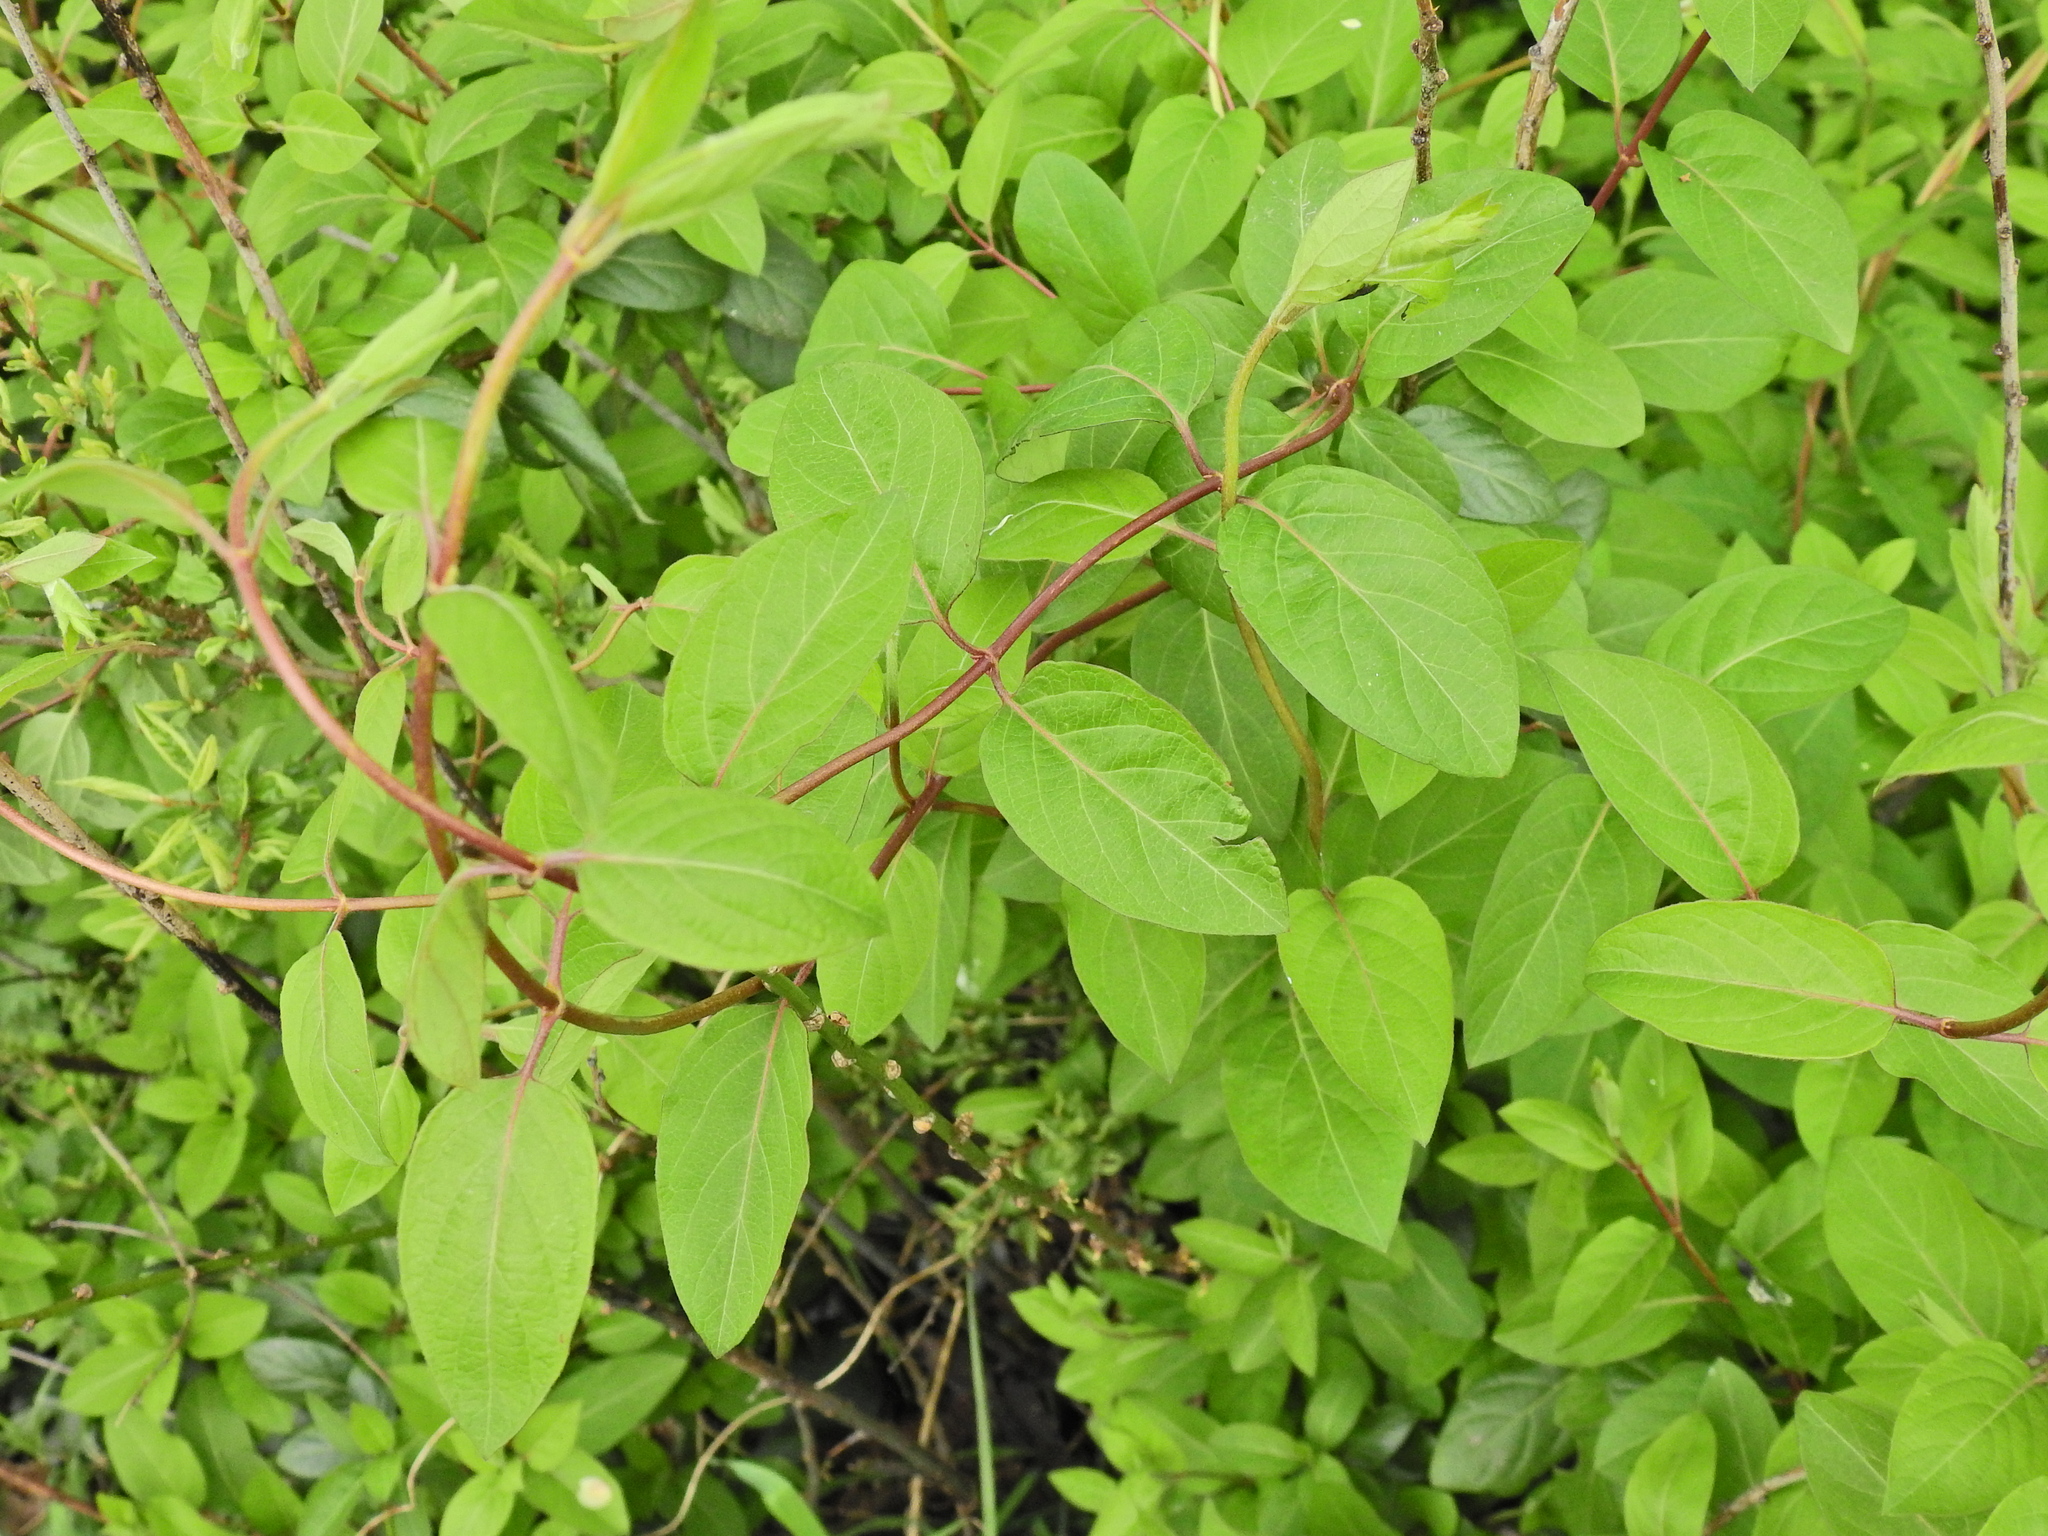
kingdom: Plantae
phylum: Tracheophyta
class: Magnoliopsida
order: Dipsacales
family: Caprifoliaceae
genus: Lonicera
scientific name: Lonicera japonica
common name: Japanese honeysuckle
